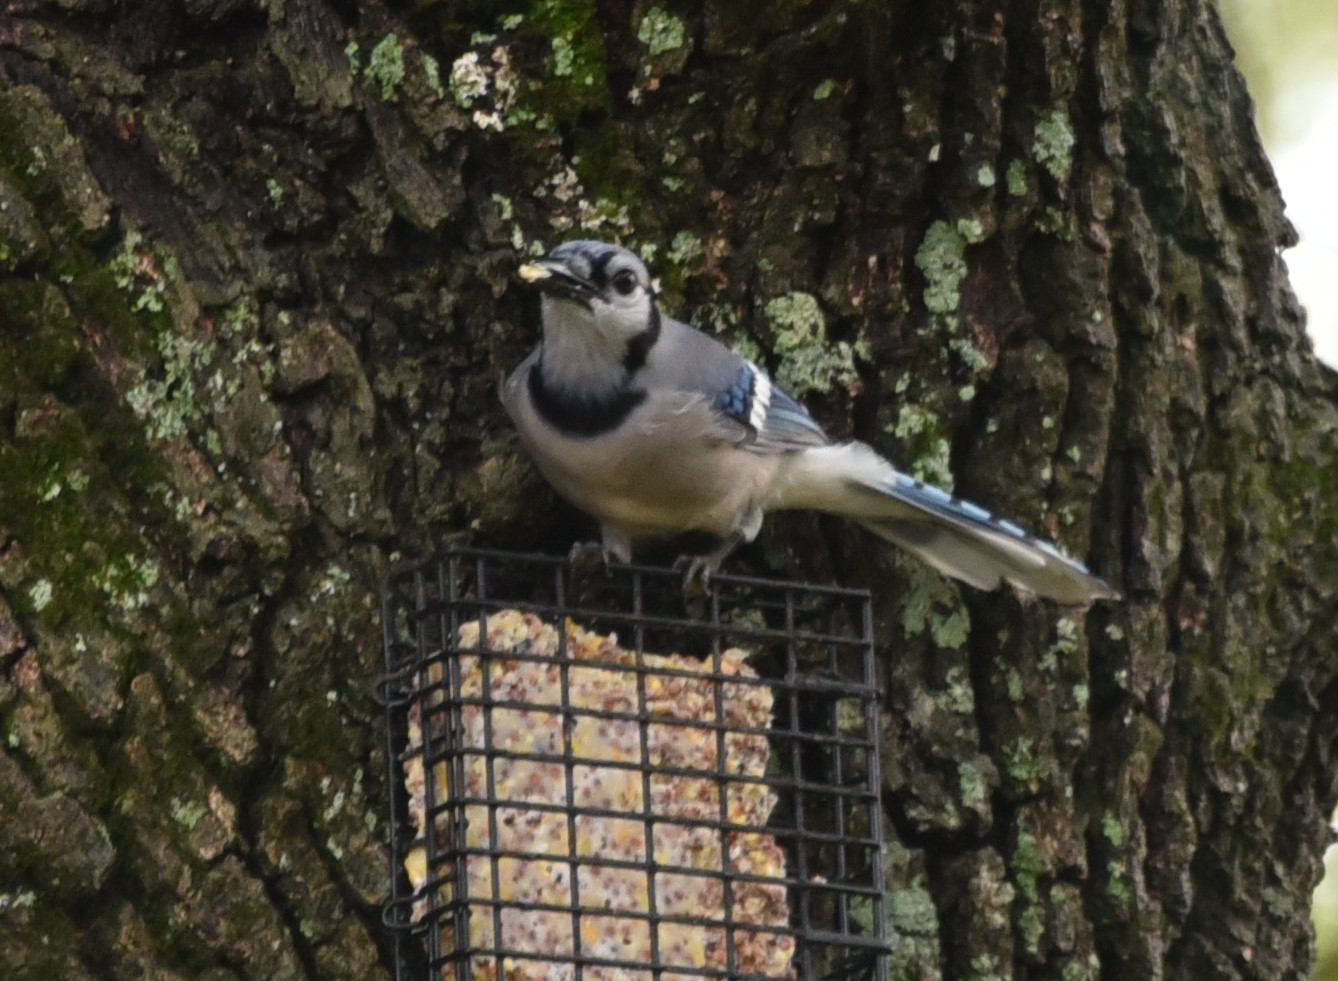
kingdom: Animalia
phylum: Chordata
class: Aves
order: Passeriformes
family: Corvidae
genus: Cyanocitta
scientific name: Cyanocitta cristata
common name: Blue jay
